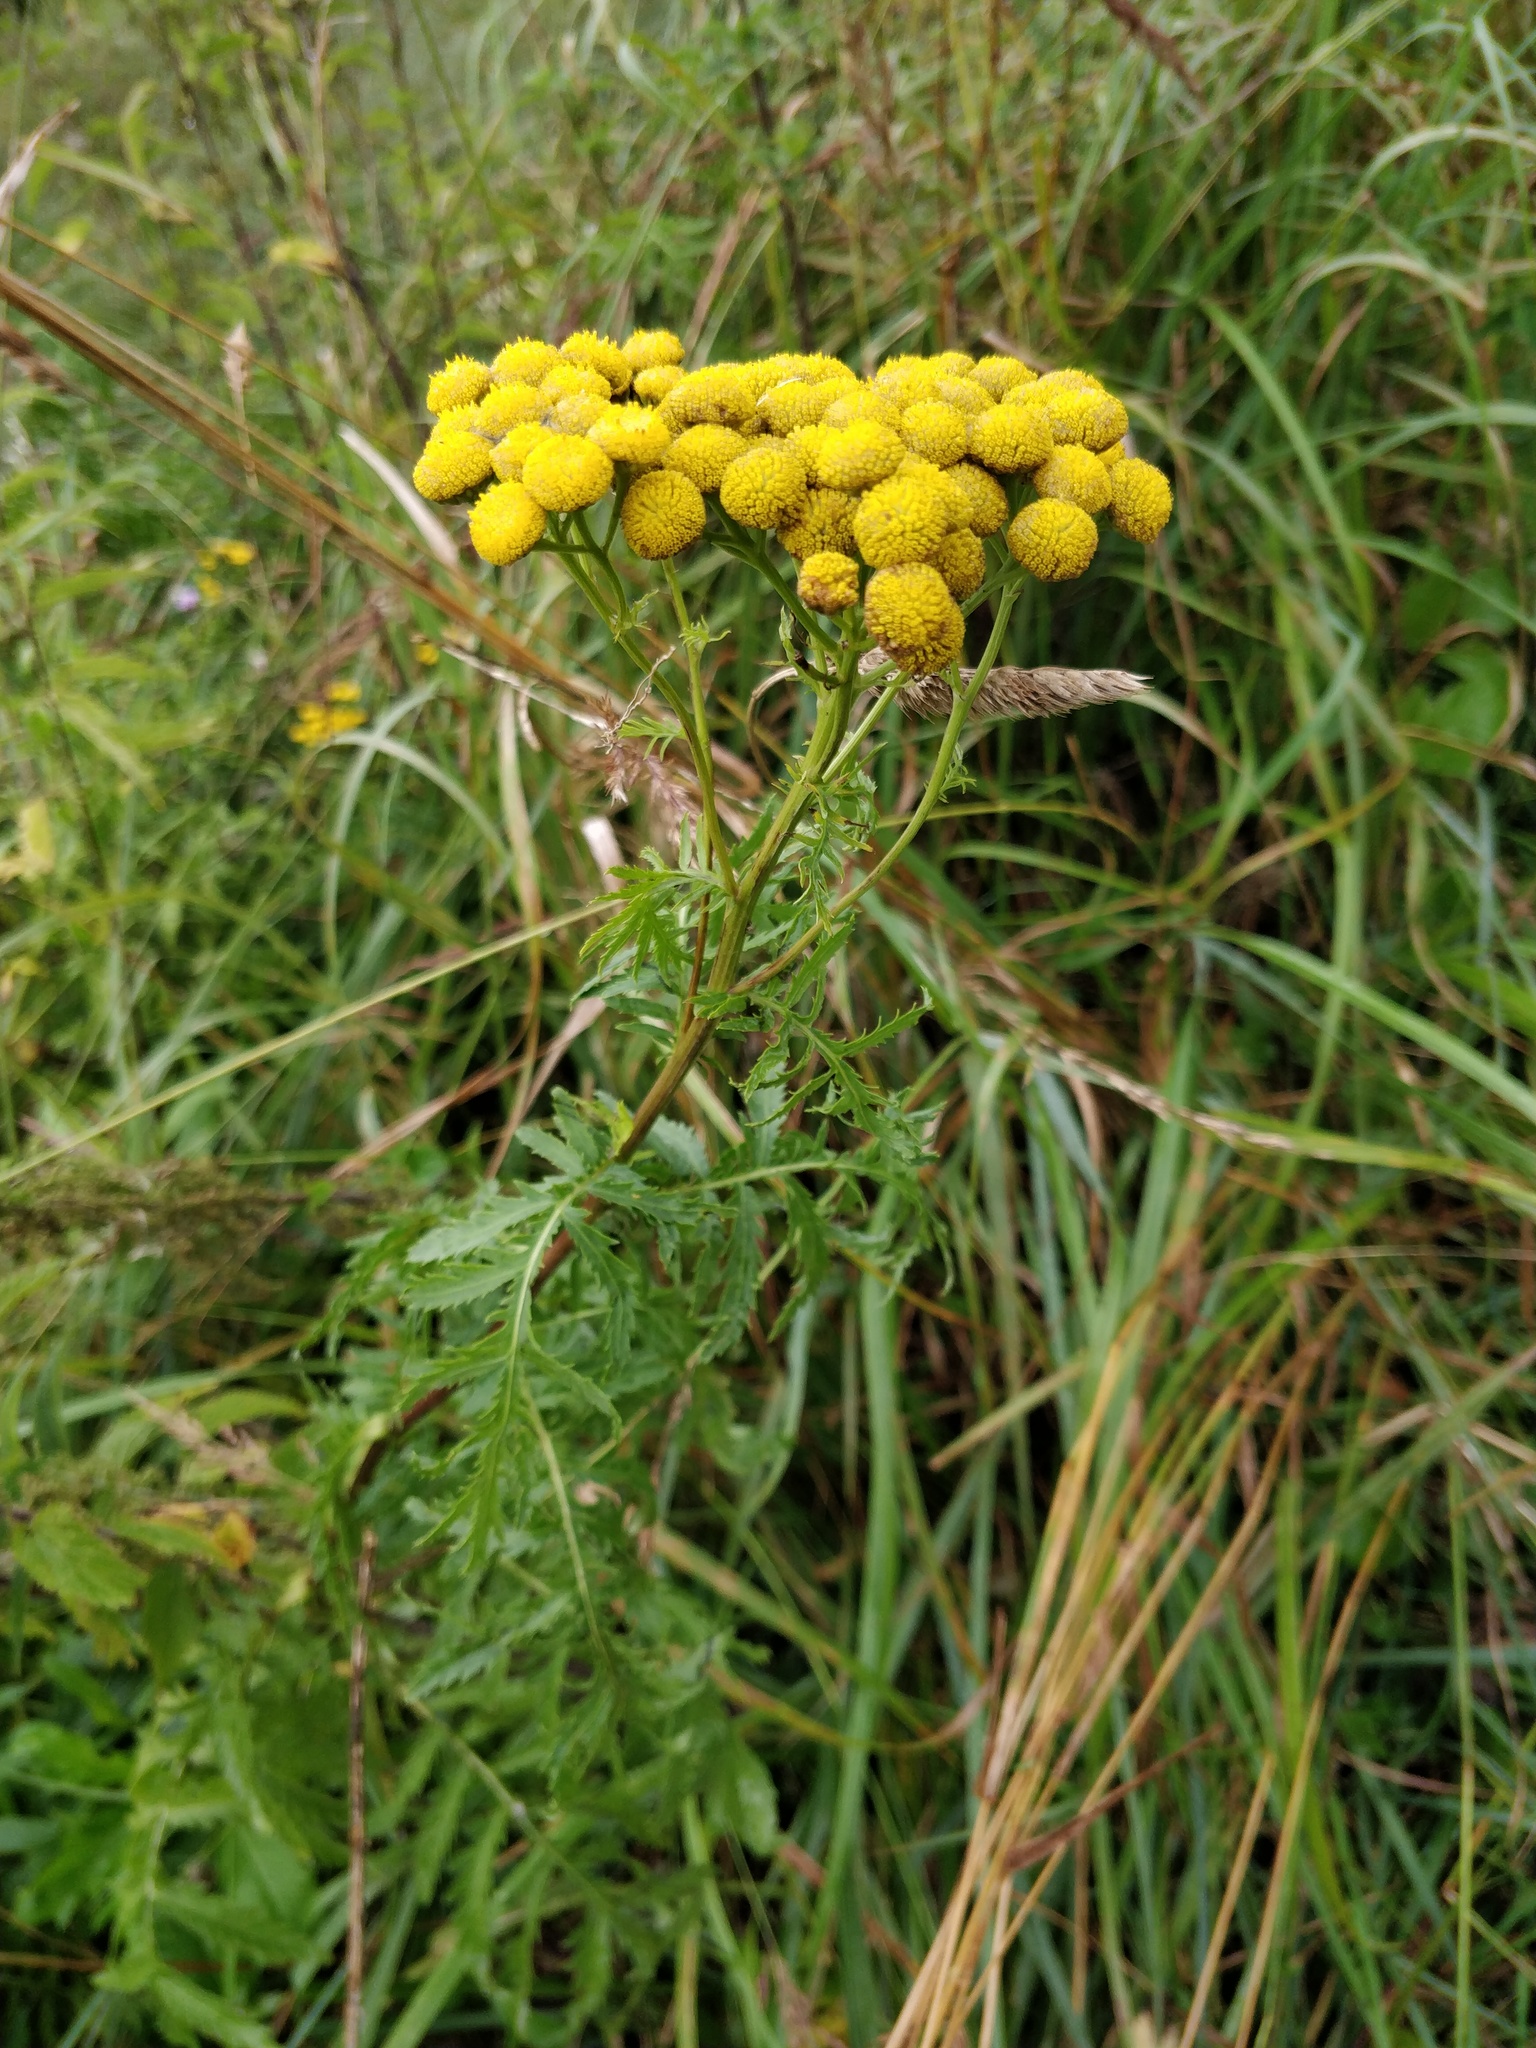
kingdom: Plantae
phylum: Tracheophyta
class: Magnoliopsida
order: Asterales
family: Asteraceae
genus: Tanacetum
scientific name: Tanacetum vulgare
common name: Common tansy
